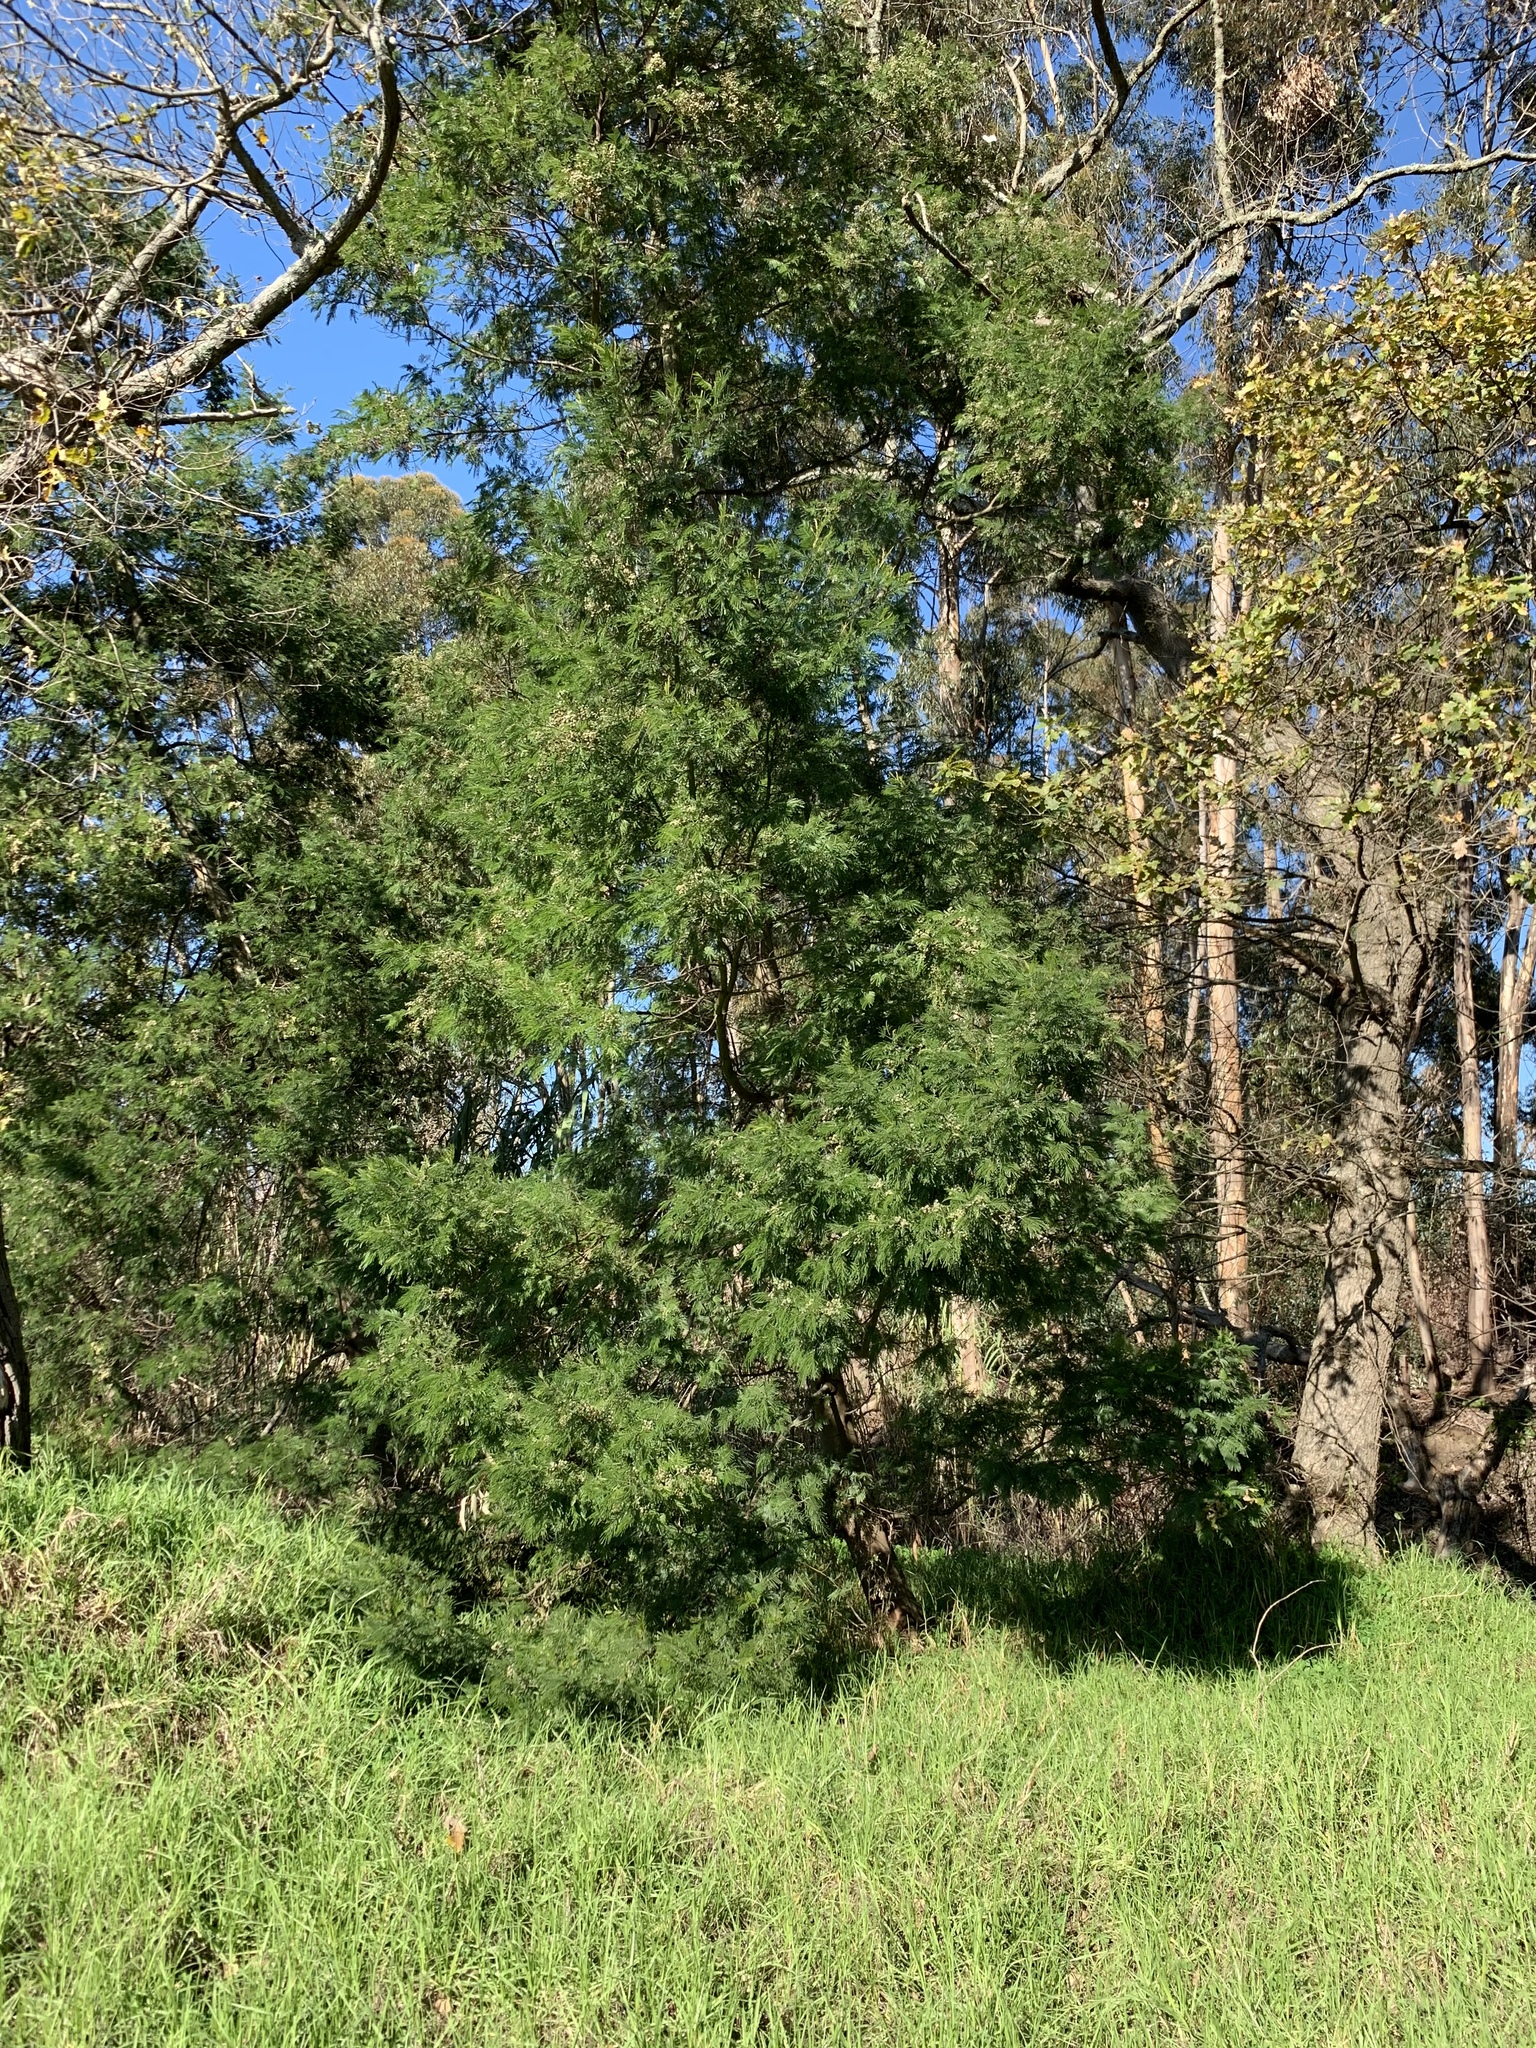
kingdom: Plantae
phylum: Tracheophyta
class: Magnoliopsida
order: Fabales
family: Fabaceae
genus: Acacia
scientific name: Acacia mearnsii
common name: Black wattle
